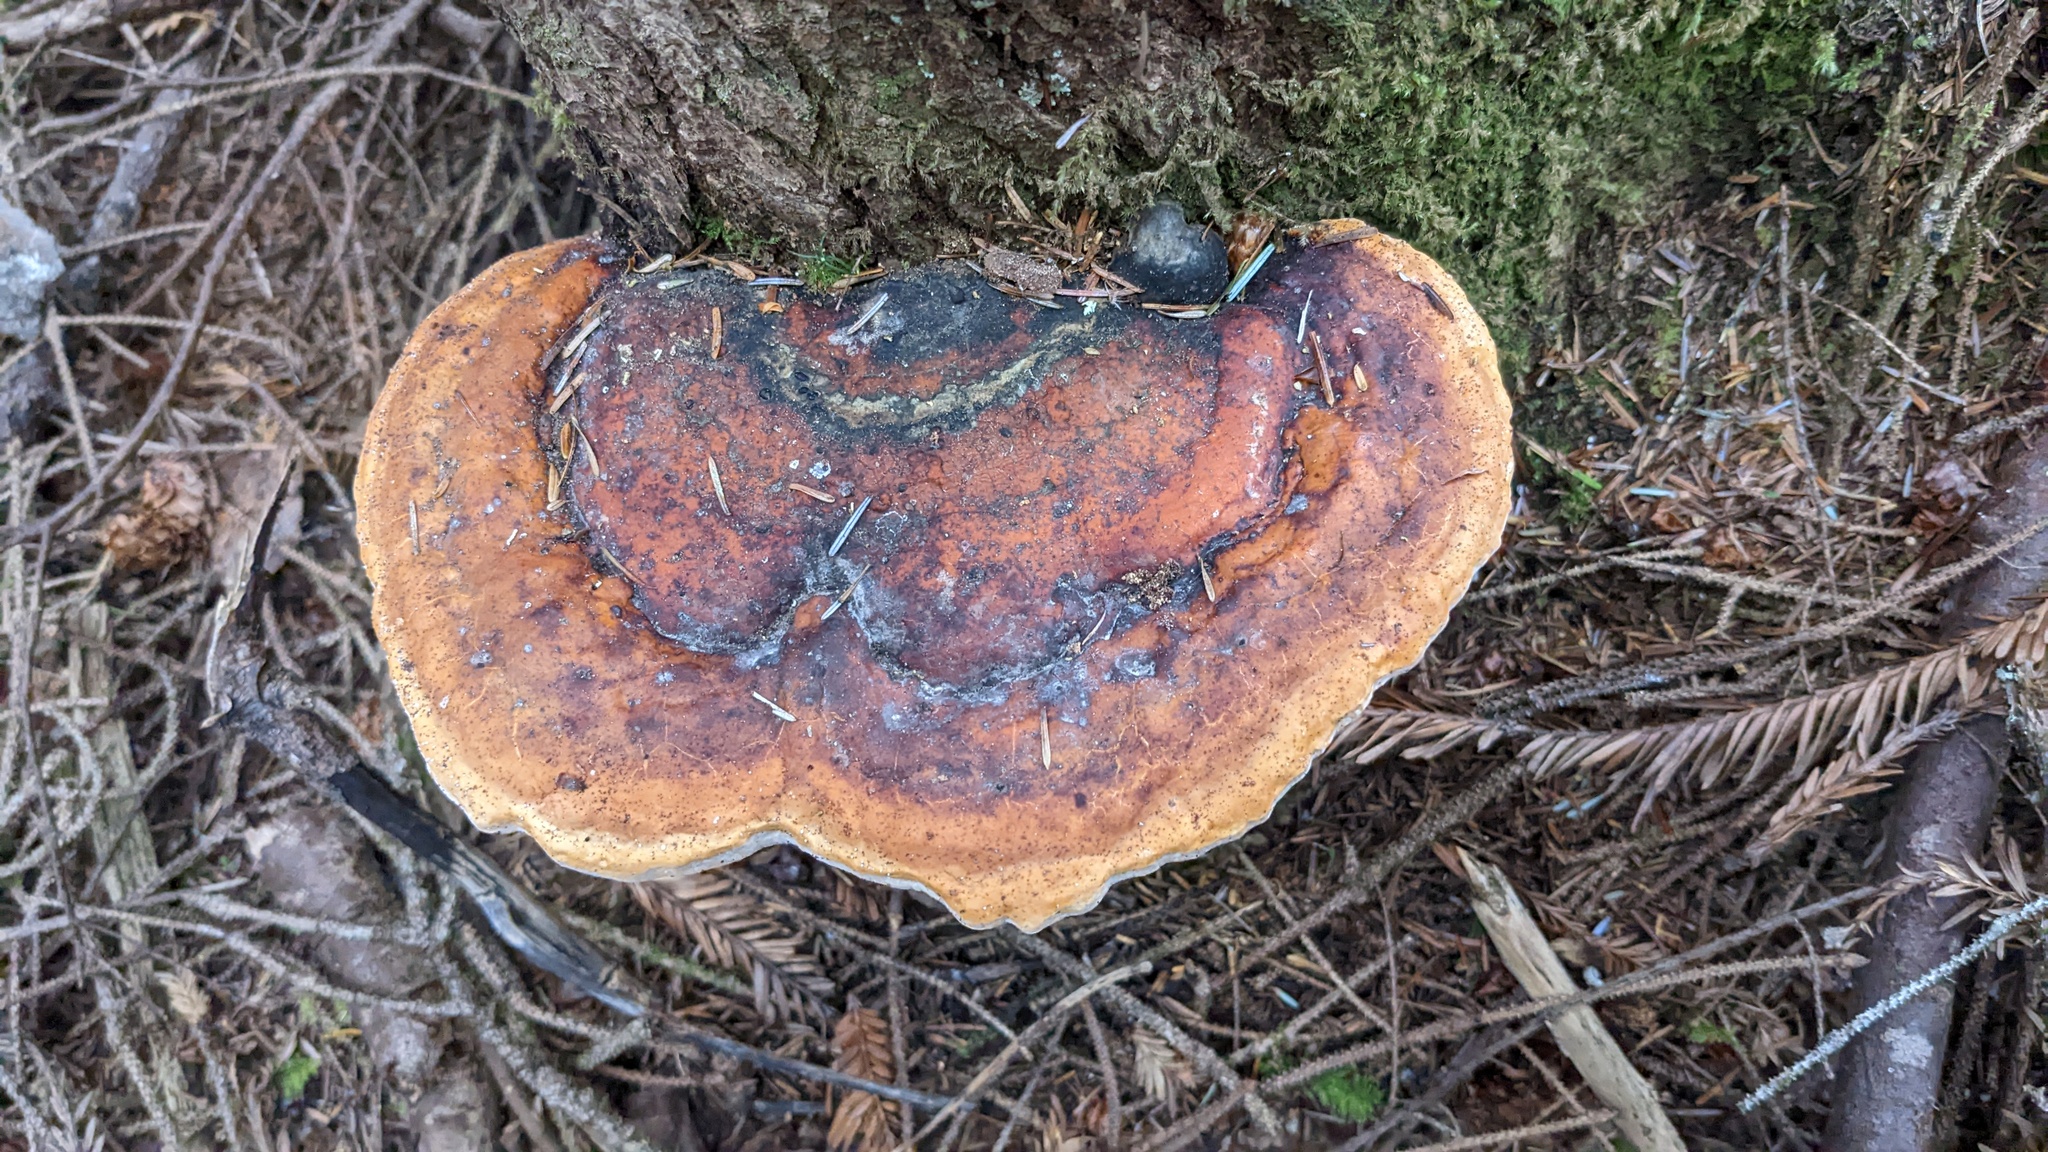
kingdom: Fungi
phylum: Basidiomycota
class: Agaricomycetes
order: Polyporales
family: Fomitopsidaceae
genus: Fomitopsis
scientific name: Fomitopsis mounceae
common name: Northern red belt
